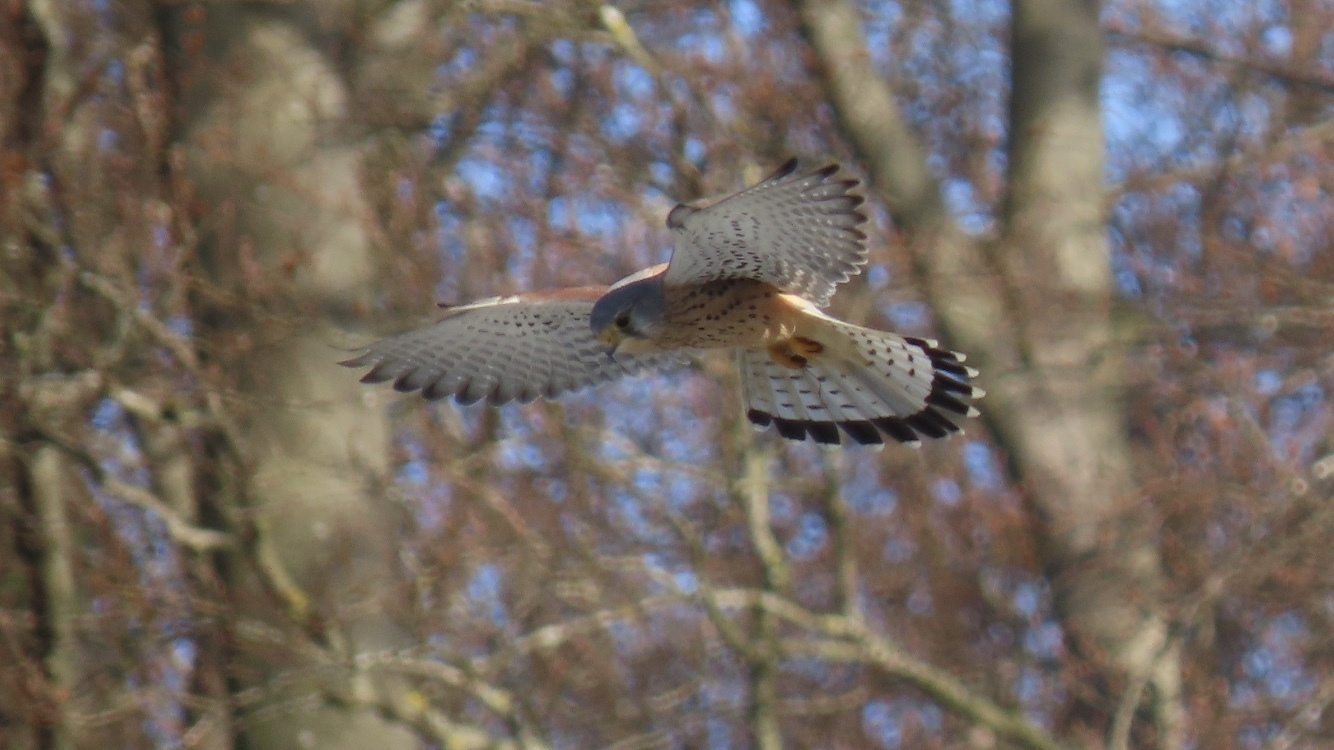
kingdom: Animalia
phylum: Chordata
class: Aves
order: Falconiformes
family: Falconidae
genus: Falco
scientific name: Falco tinnunculus
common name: Common kestrel
